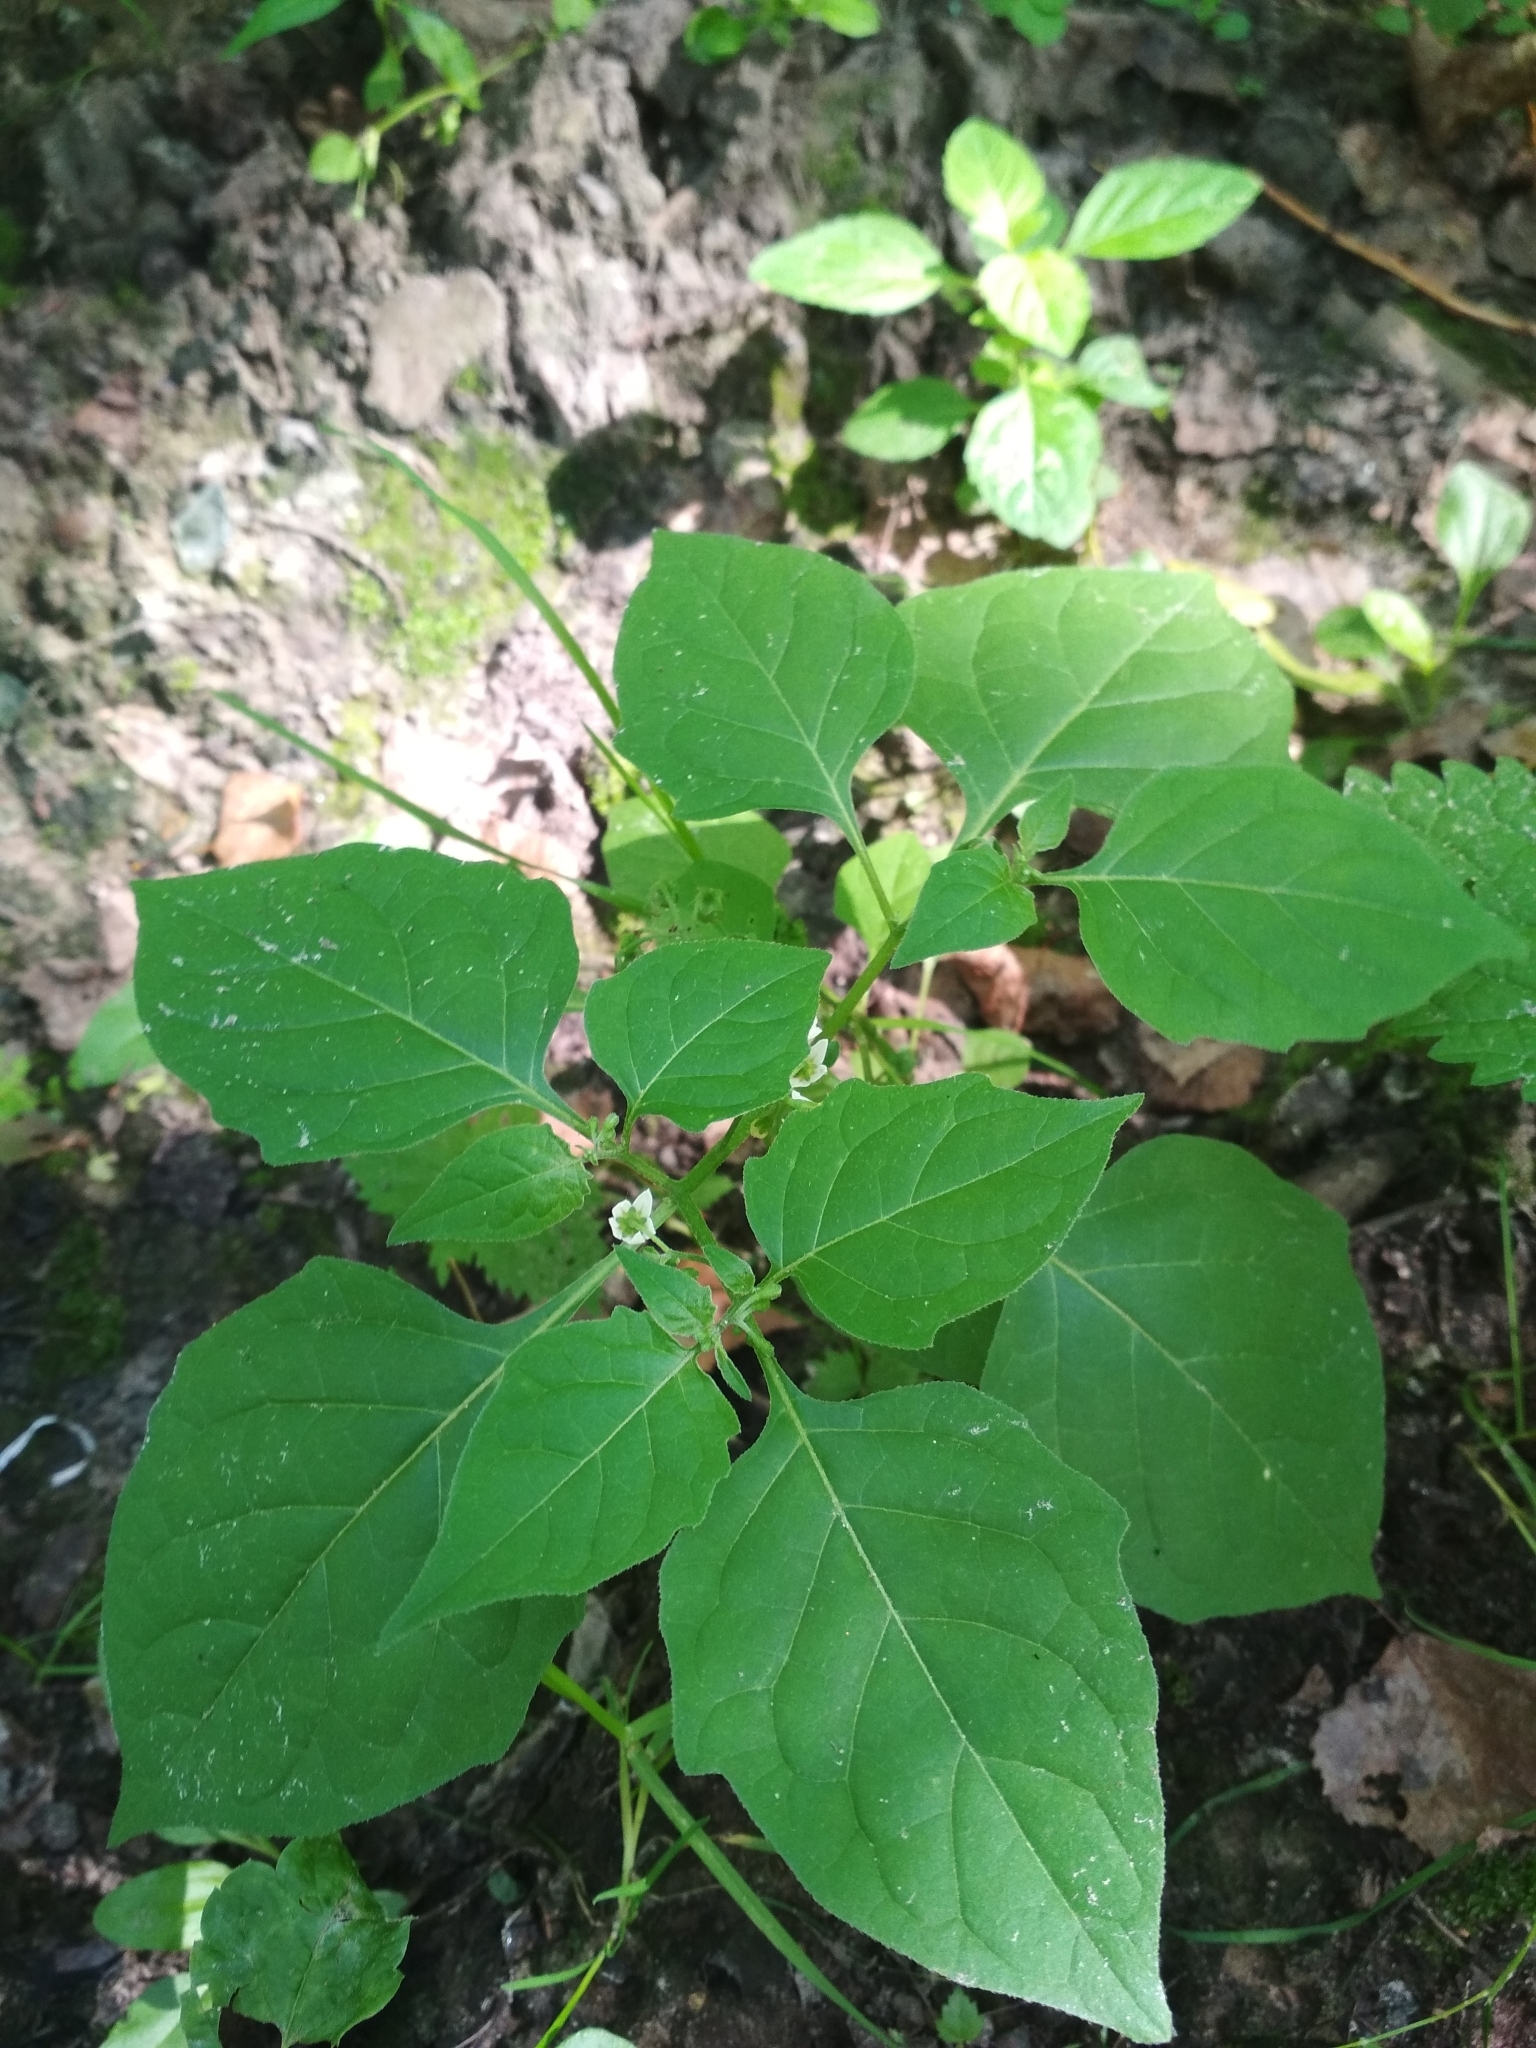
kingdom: Plantae
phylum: Tracheophyta
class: Magnoliopsida
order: Solanales
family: Solanaceae
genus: Solanum
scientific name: Solanum nigrum
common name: Black nightshade
